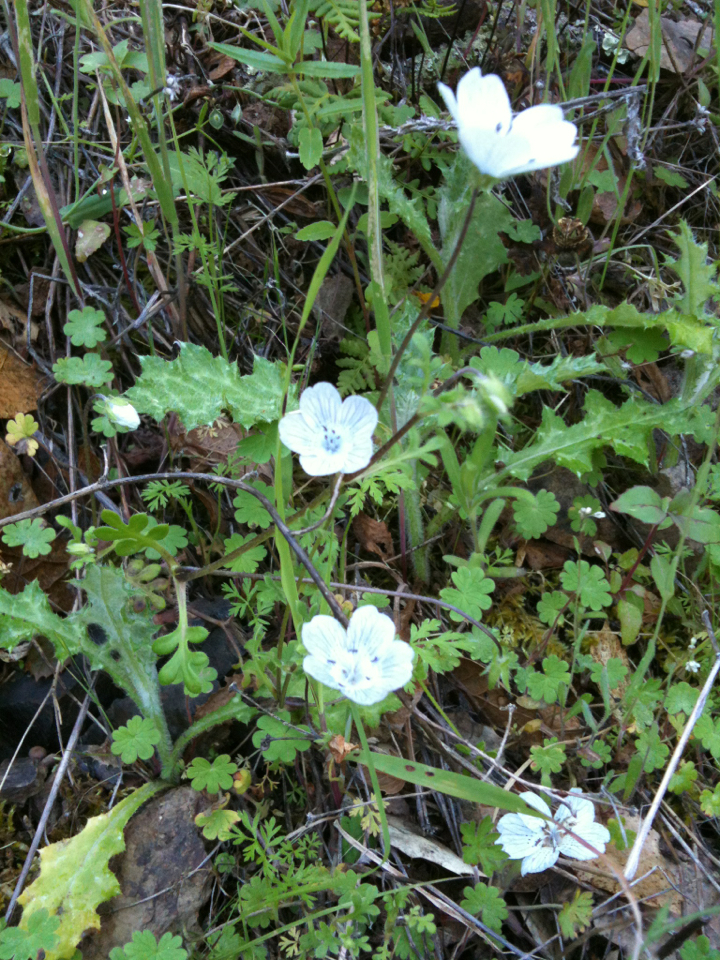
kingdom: Plantae
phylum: Tracheophyta
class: Magnoliopsida
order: Boraginales
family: Hydrophyllaceae
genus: Nemophila
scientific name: Nemophila menziesii
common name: Baby's-blue-eyes
